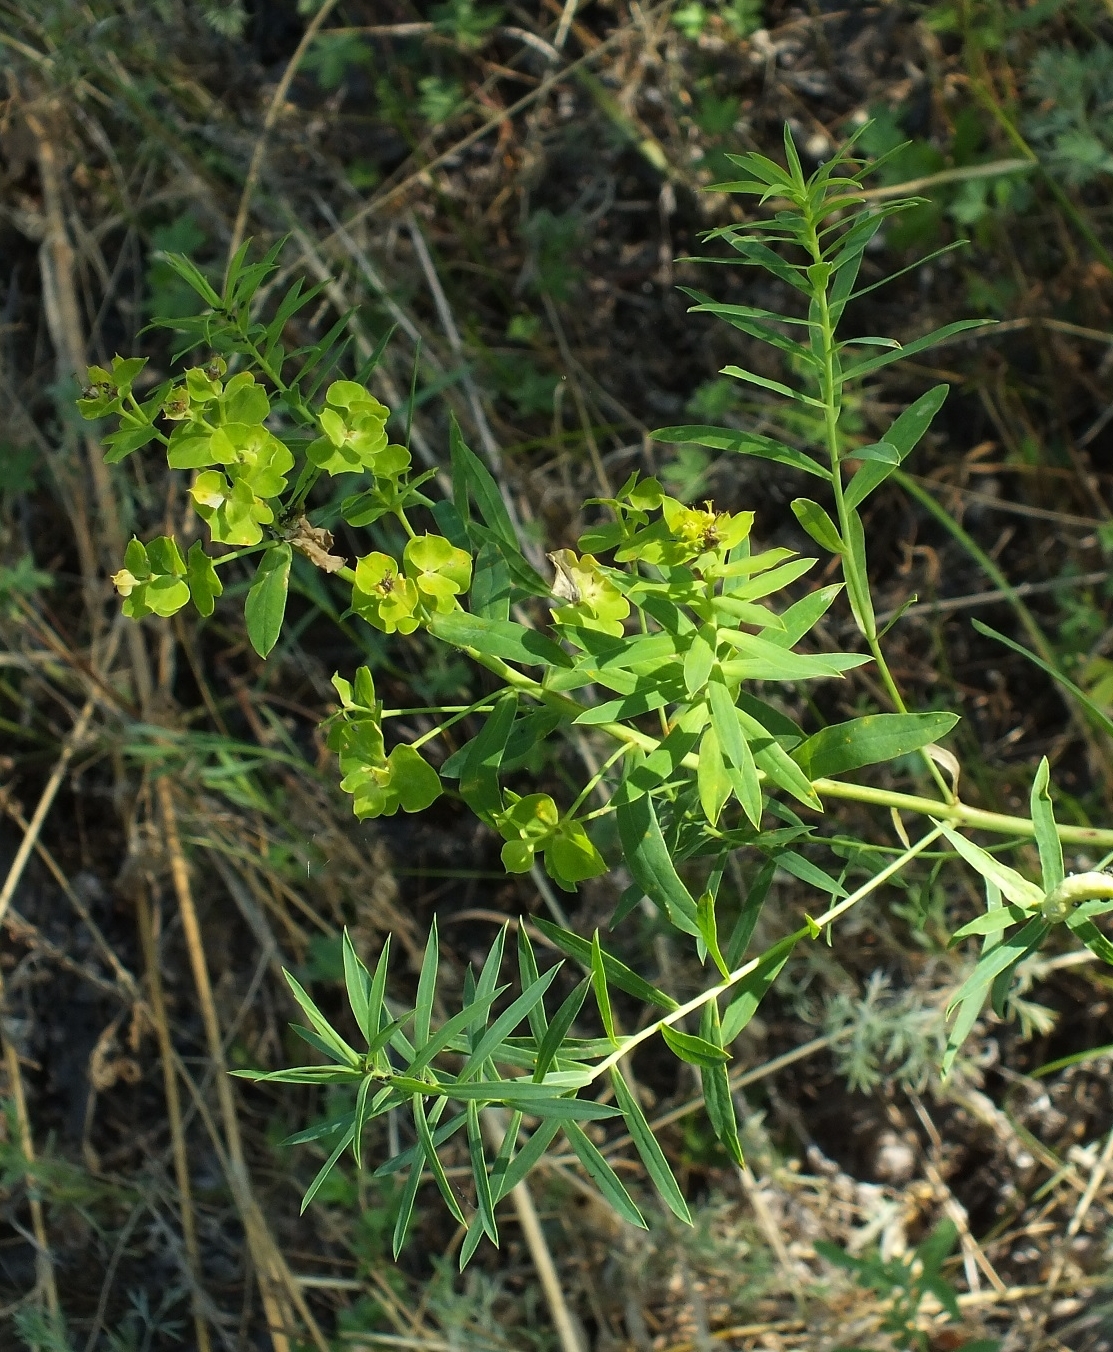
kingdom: Plantae
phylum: Tracheophyta
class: Magnoliopsida
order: Malpighiales
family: Euphorbiaceae
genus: Euphorbia
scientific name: Euphorbia virgata
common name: Leafy spurge
